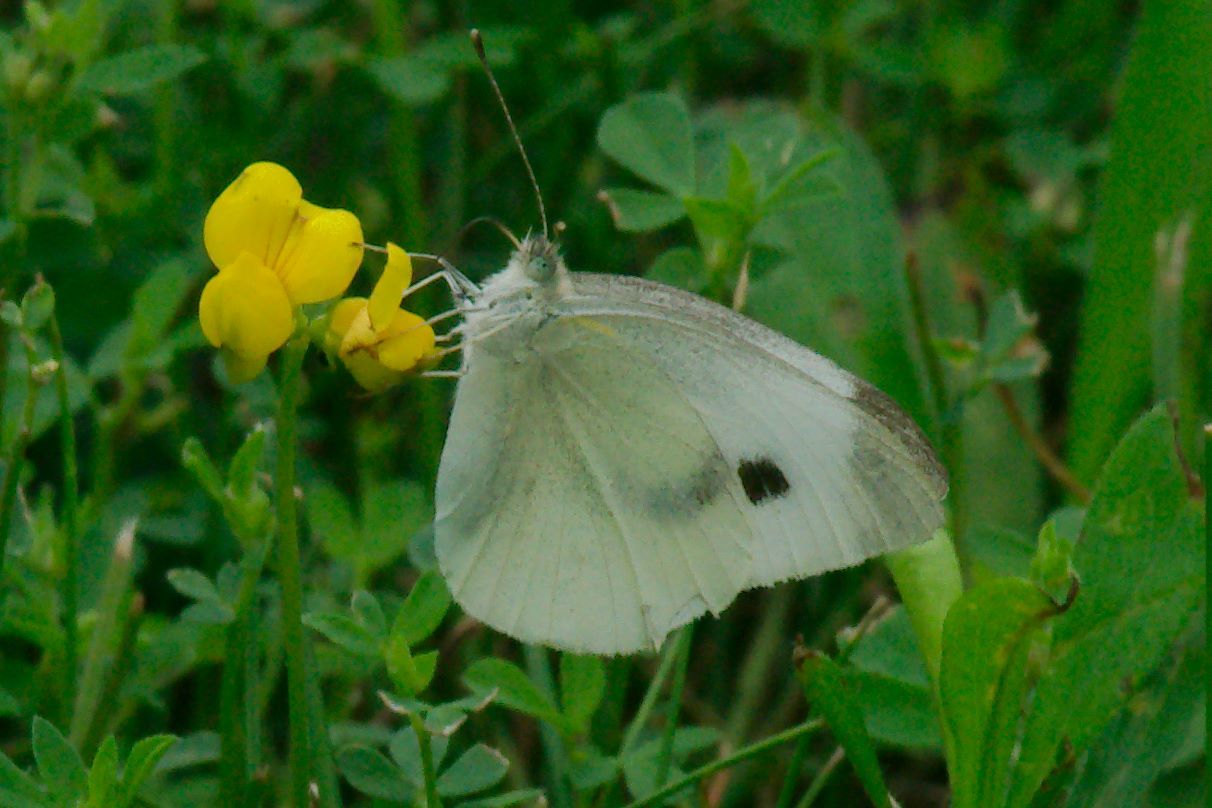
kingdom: Animalia
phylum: Arthropoda
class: Insecta
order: Lepidoptera
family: Pieridae
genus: Pieris
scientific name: Pieris rapae
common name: Small white
